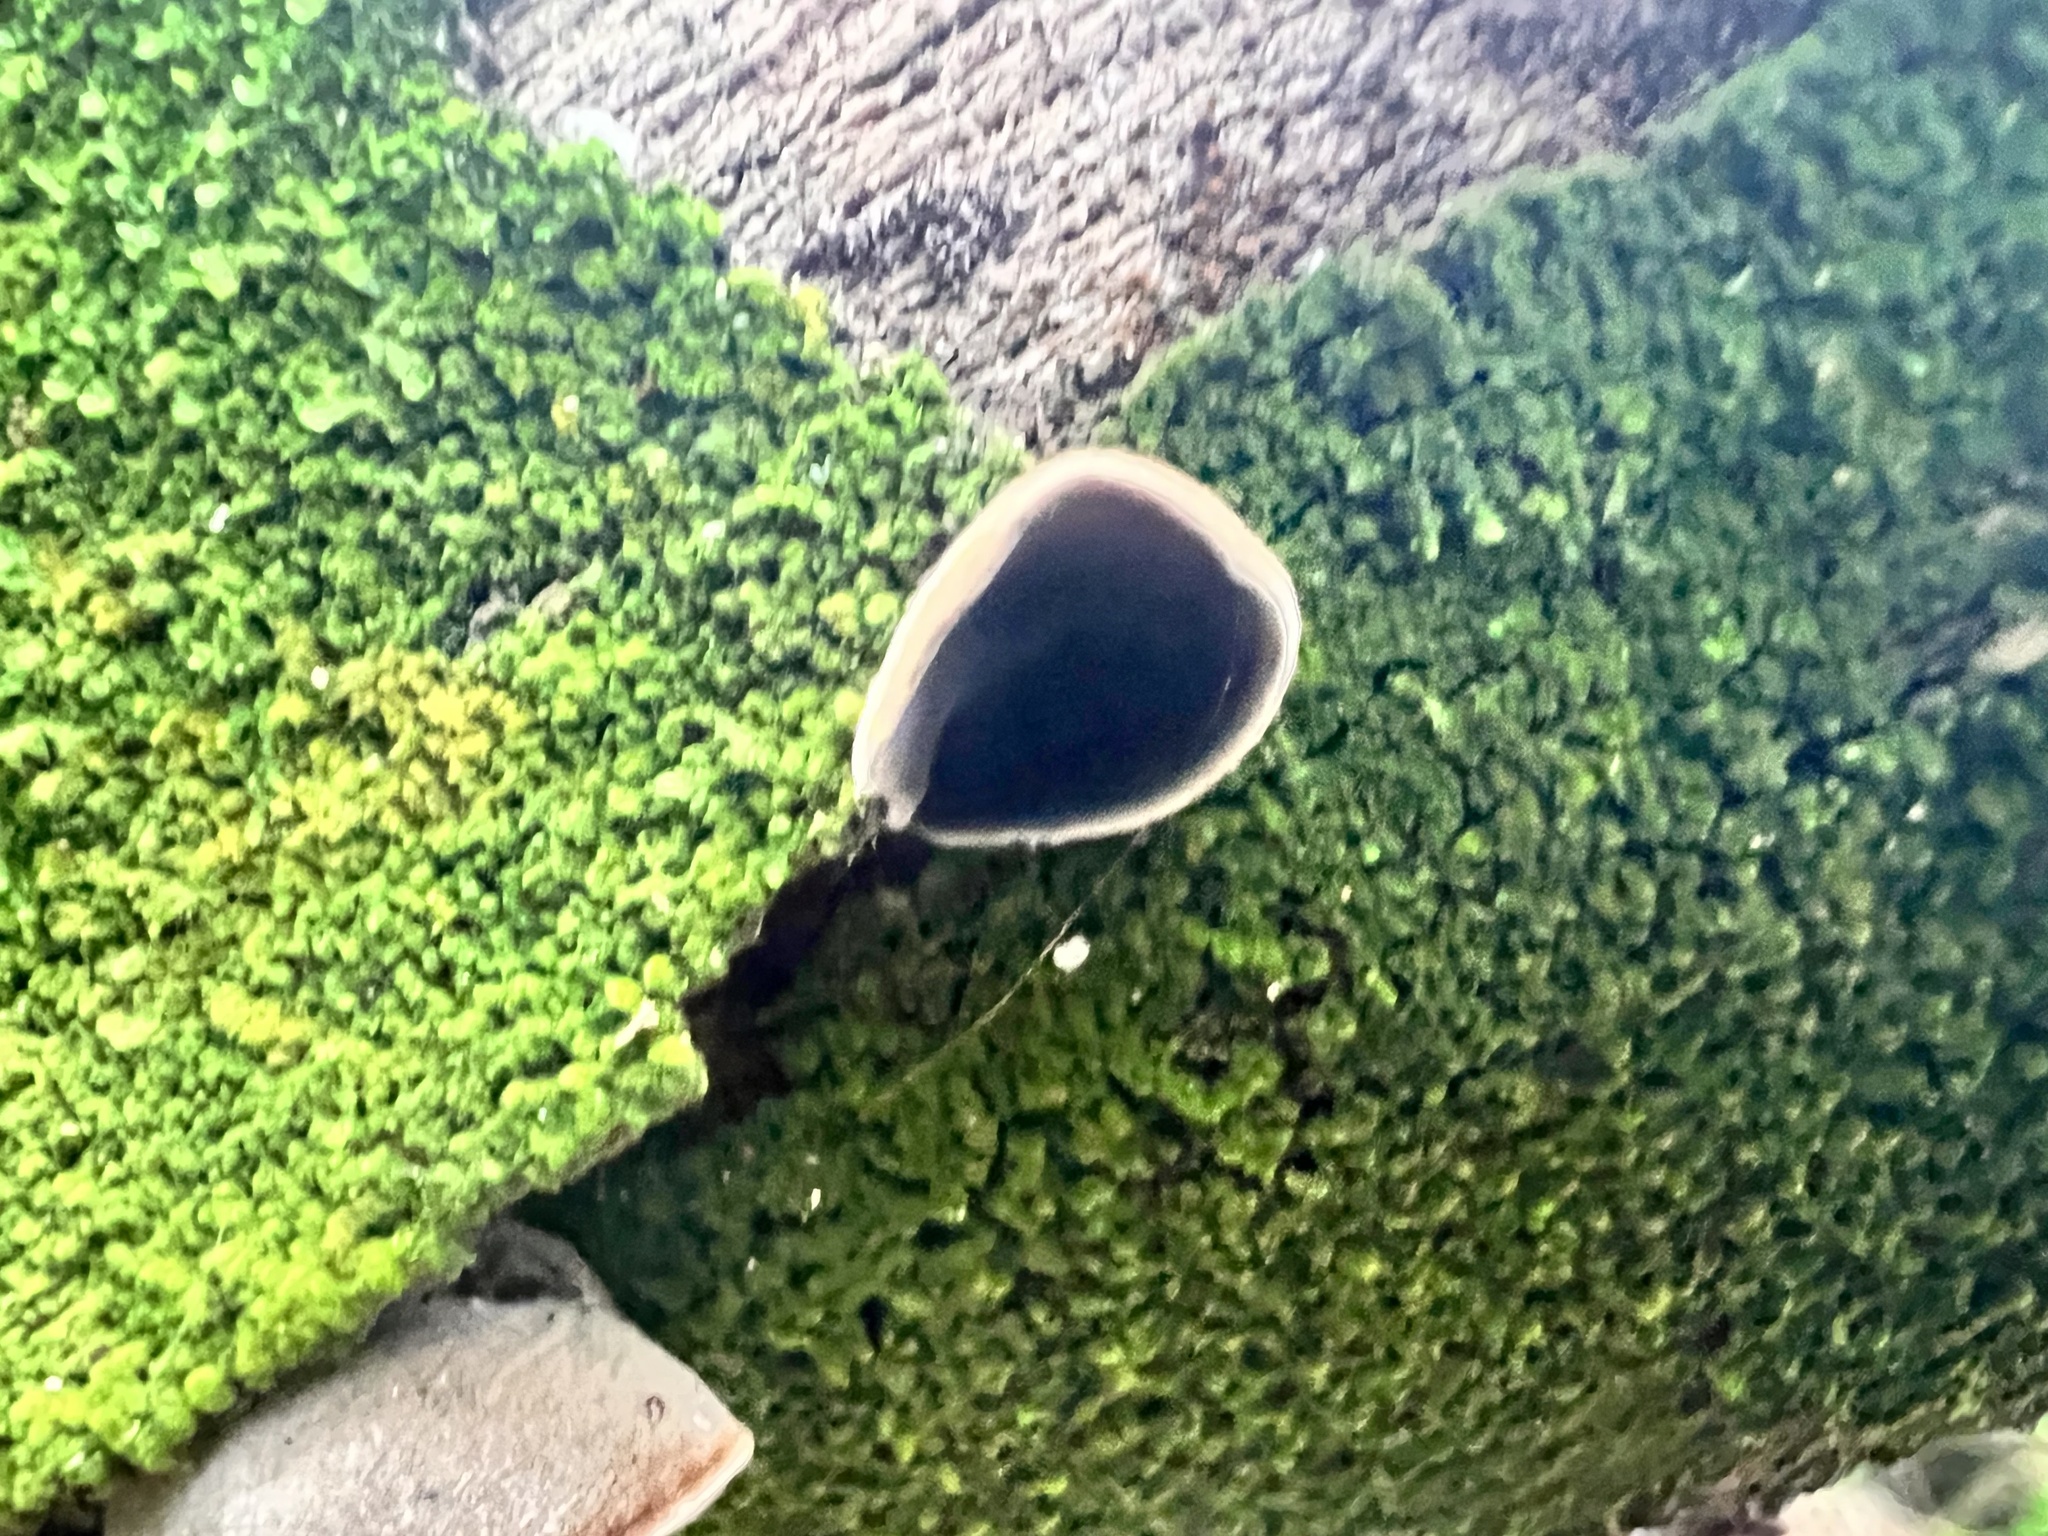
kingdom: Fungi
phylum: Basidiomycota
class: Agaricomycetes
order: Auriculariales
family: Auriculariaceae
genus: Auricularia
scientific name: Auricularia cornea
